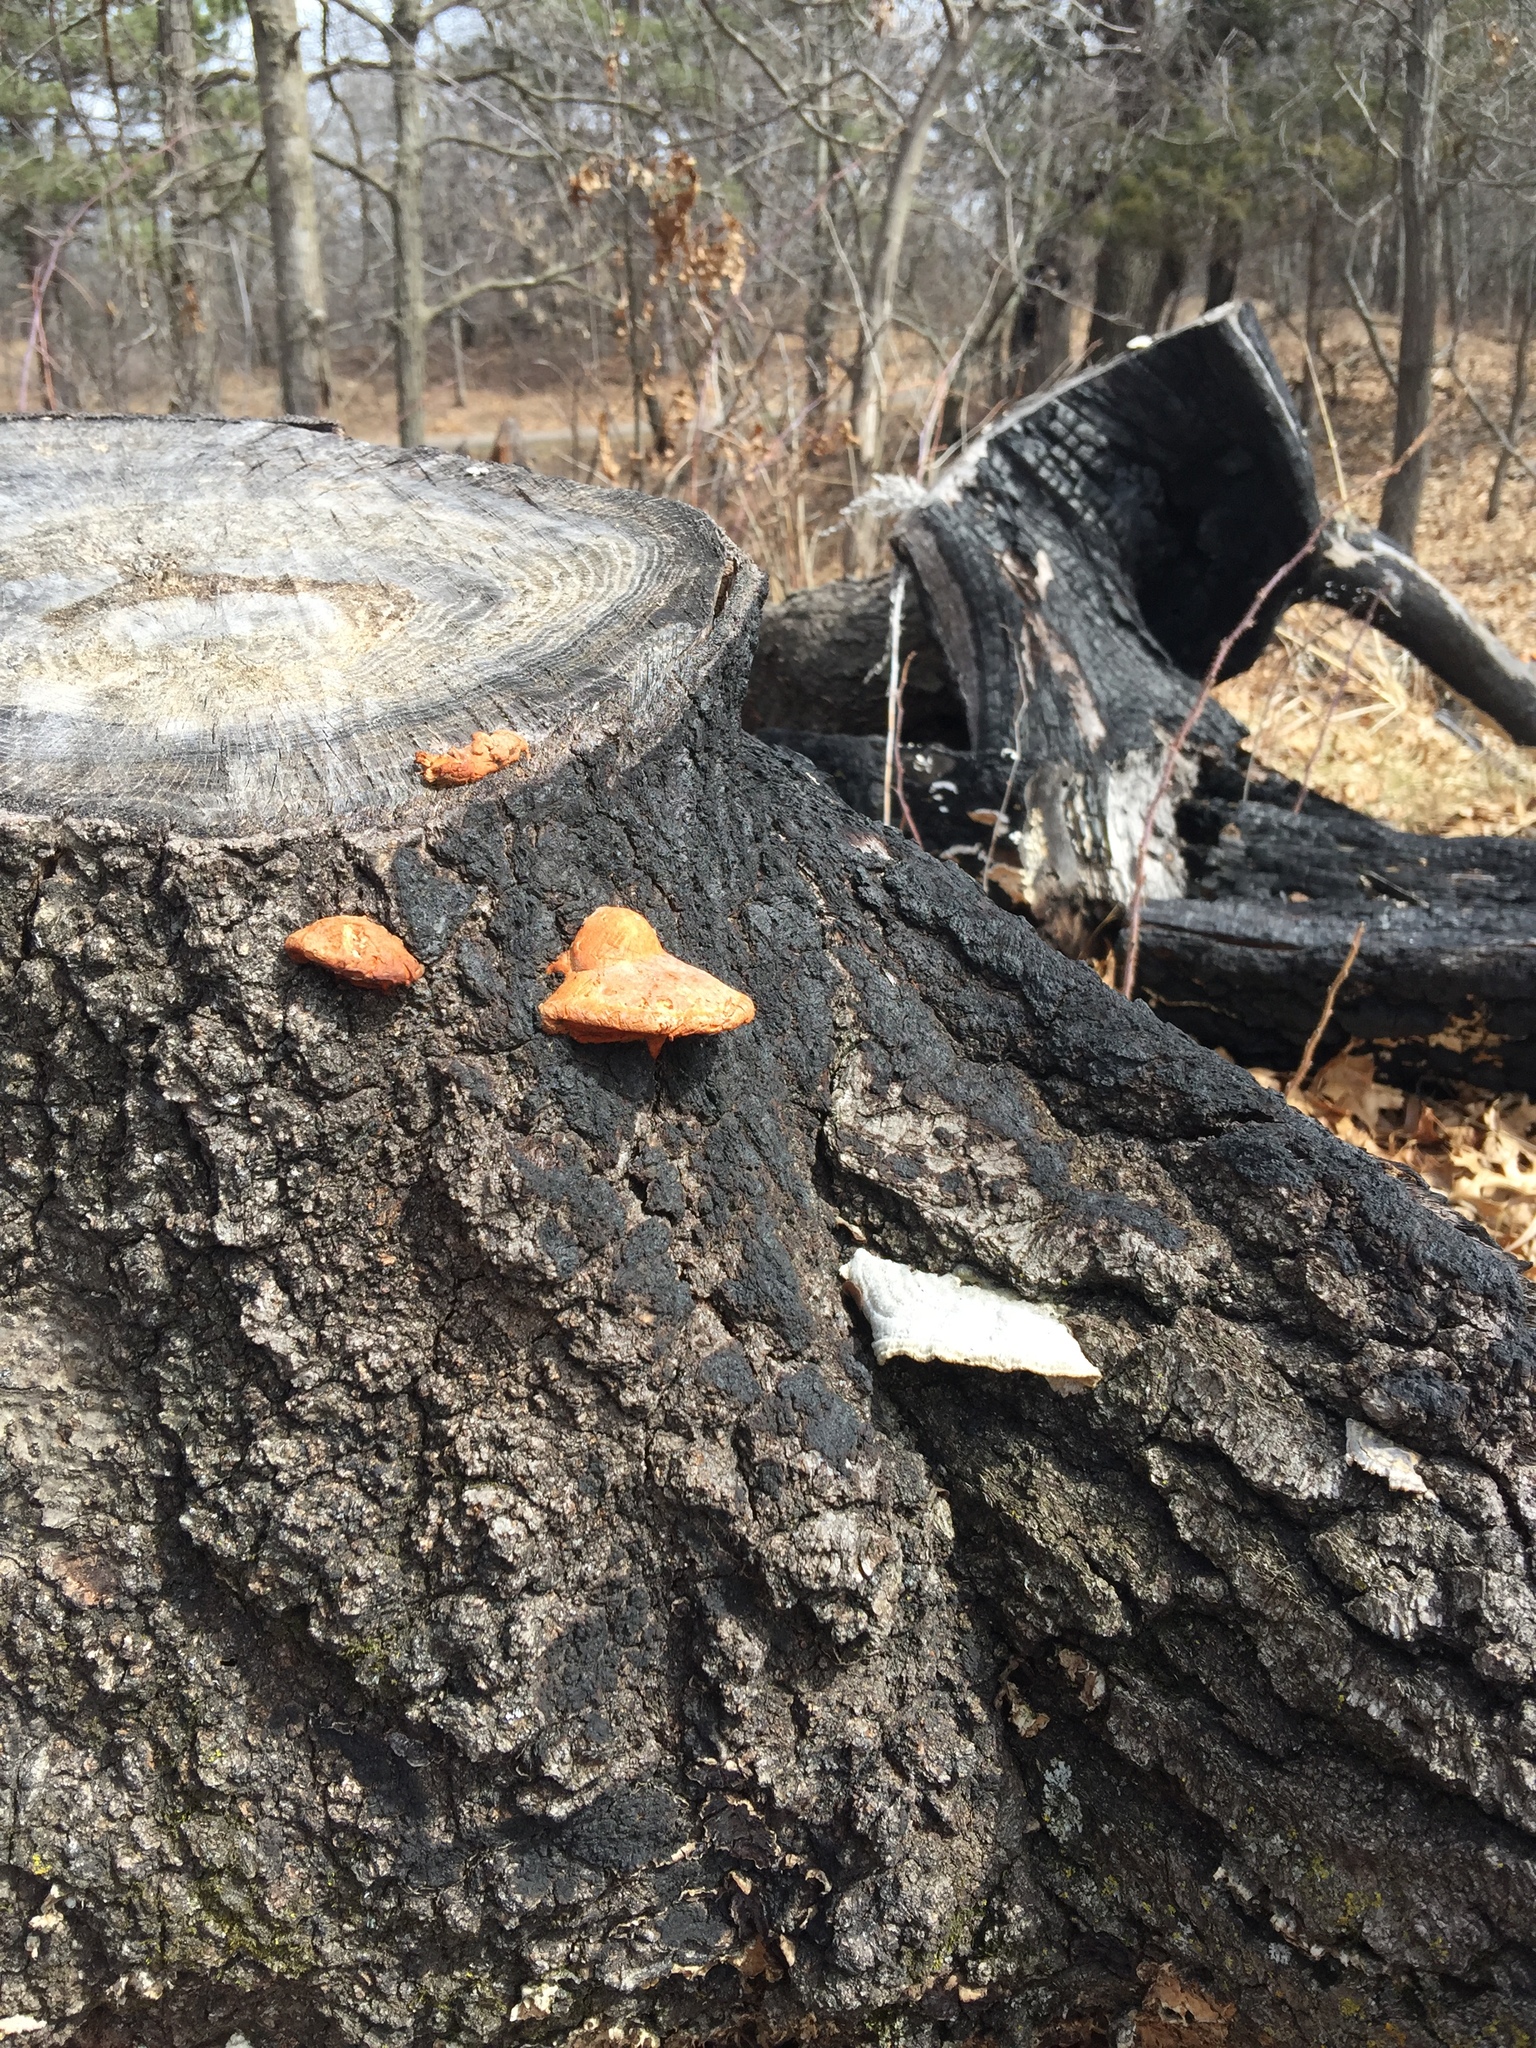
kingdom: Fungi
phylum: Basidiomycota
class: Agaricomycetes
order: Polyporales
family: Polyporaceae
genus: Trametes
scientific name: Trametes cinnabarina
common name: Northern cinnabar polypore
